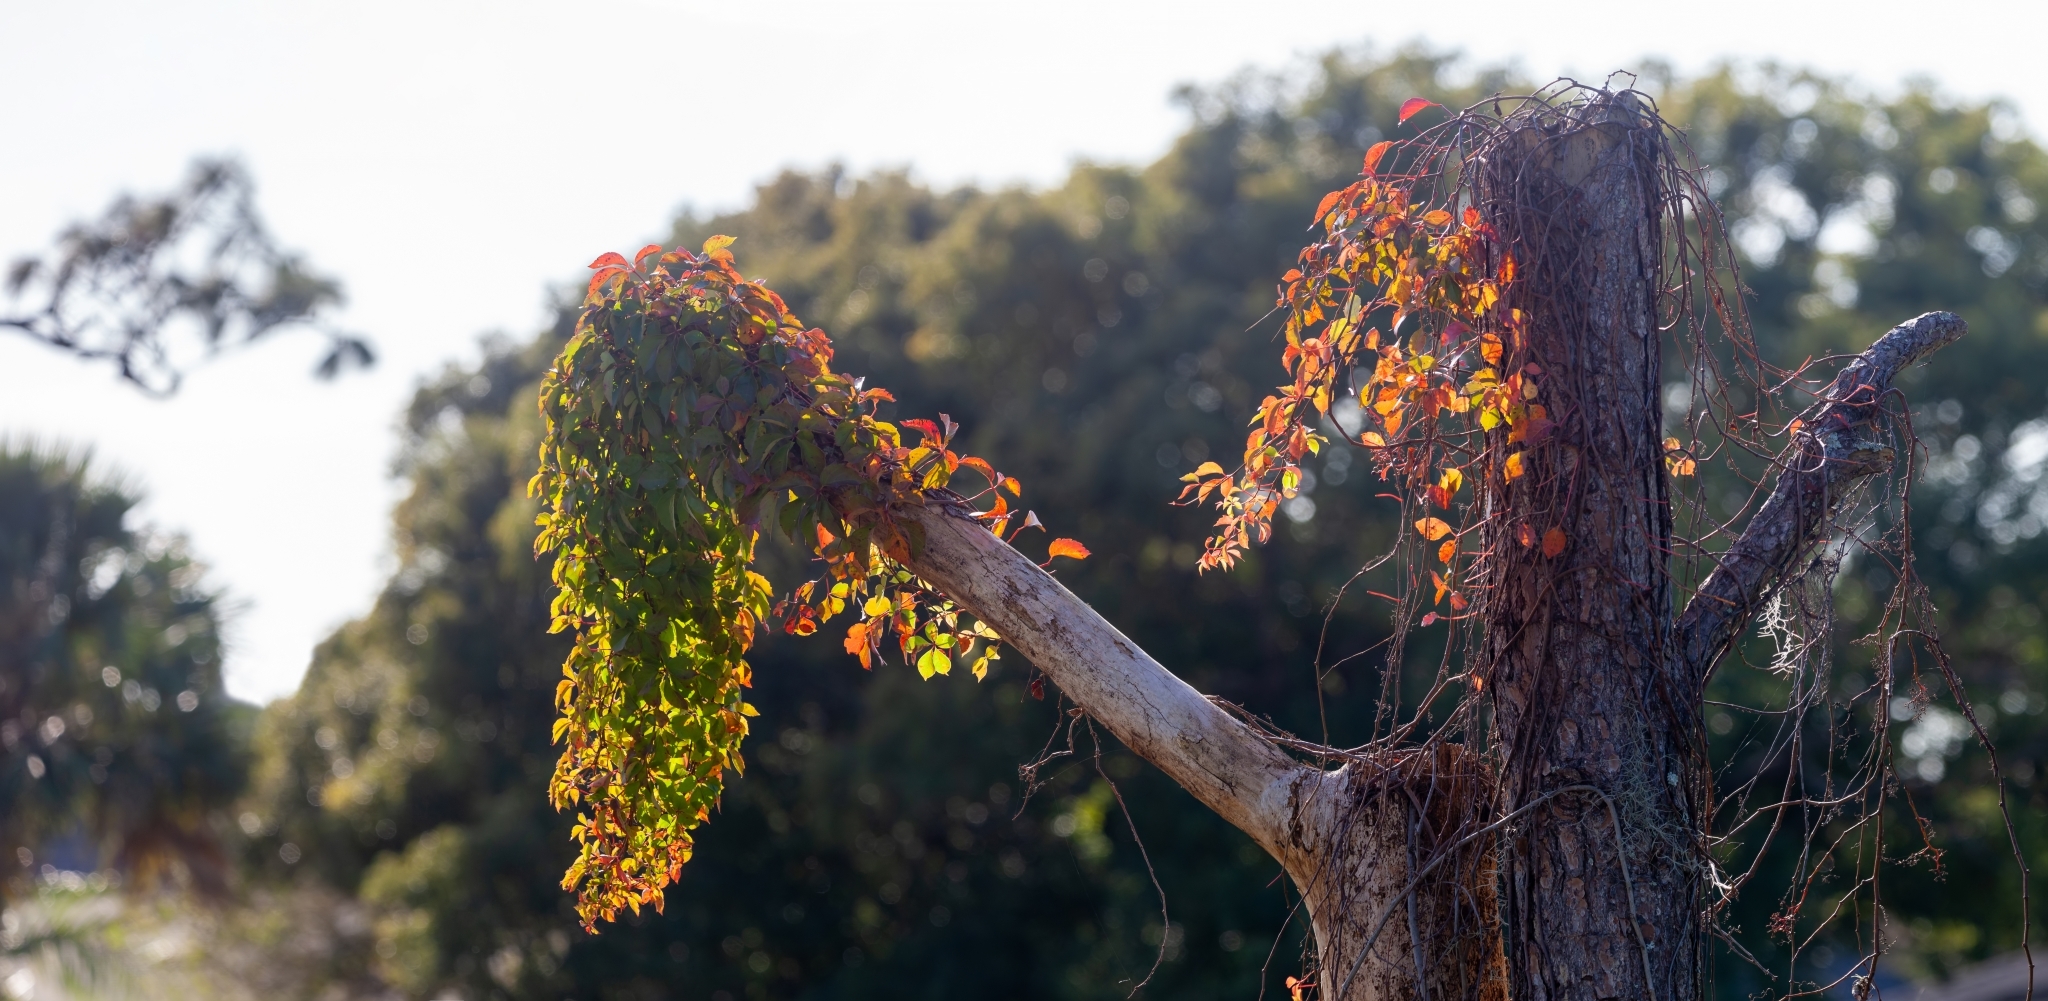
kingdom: Plantae
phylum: Tracheophyta
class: Magnoliopsida
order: Vitales
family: Vitaceae
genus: Parthenocissus
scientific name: Parthenocissus quinquefolia
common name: Virginia-creeper
